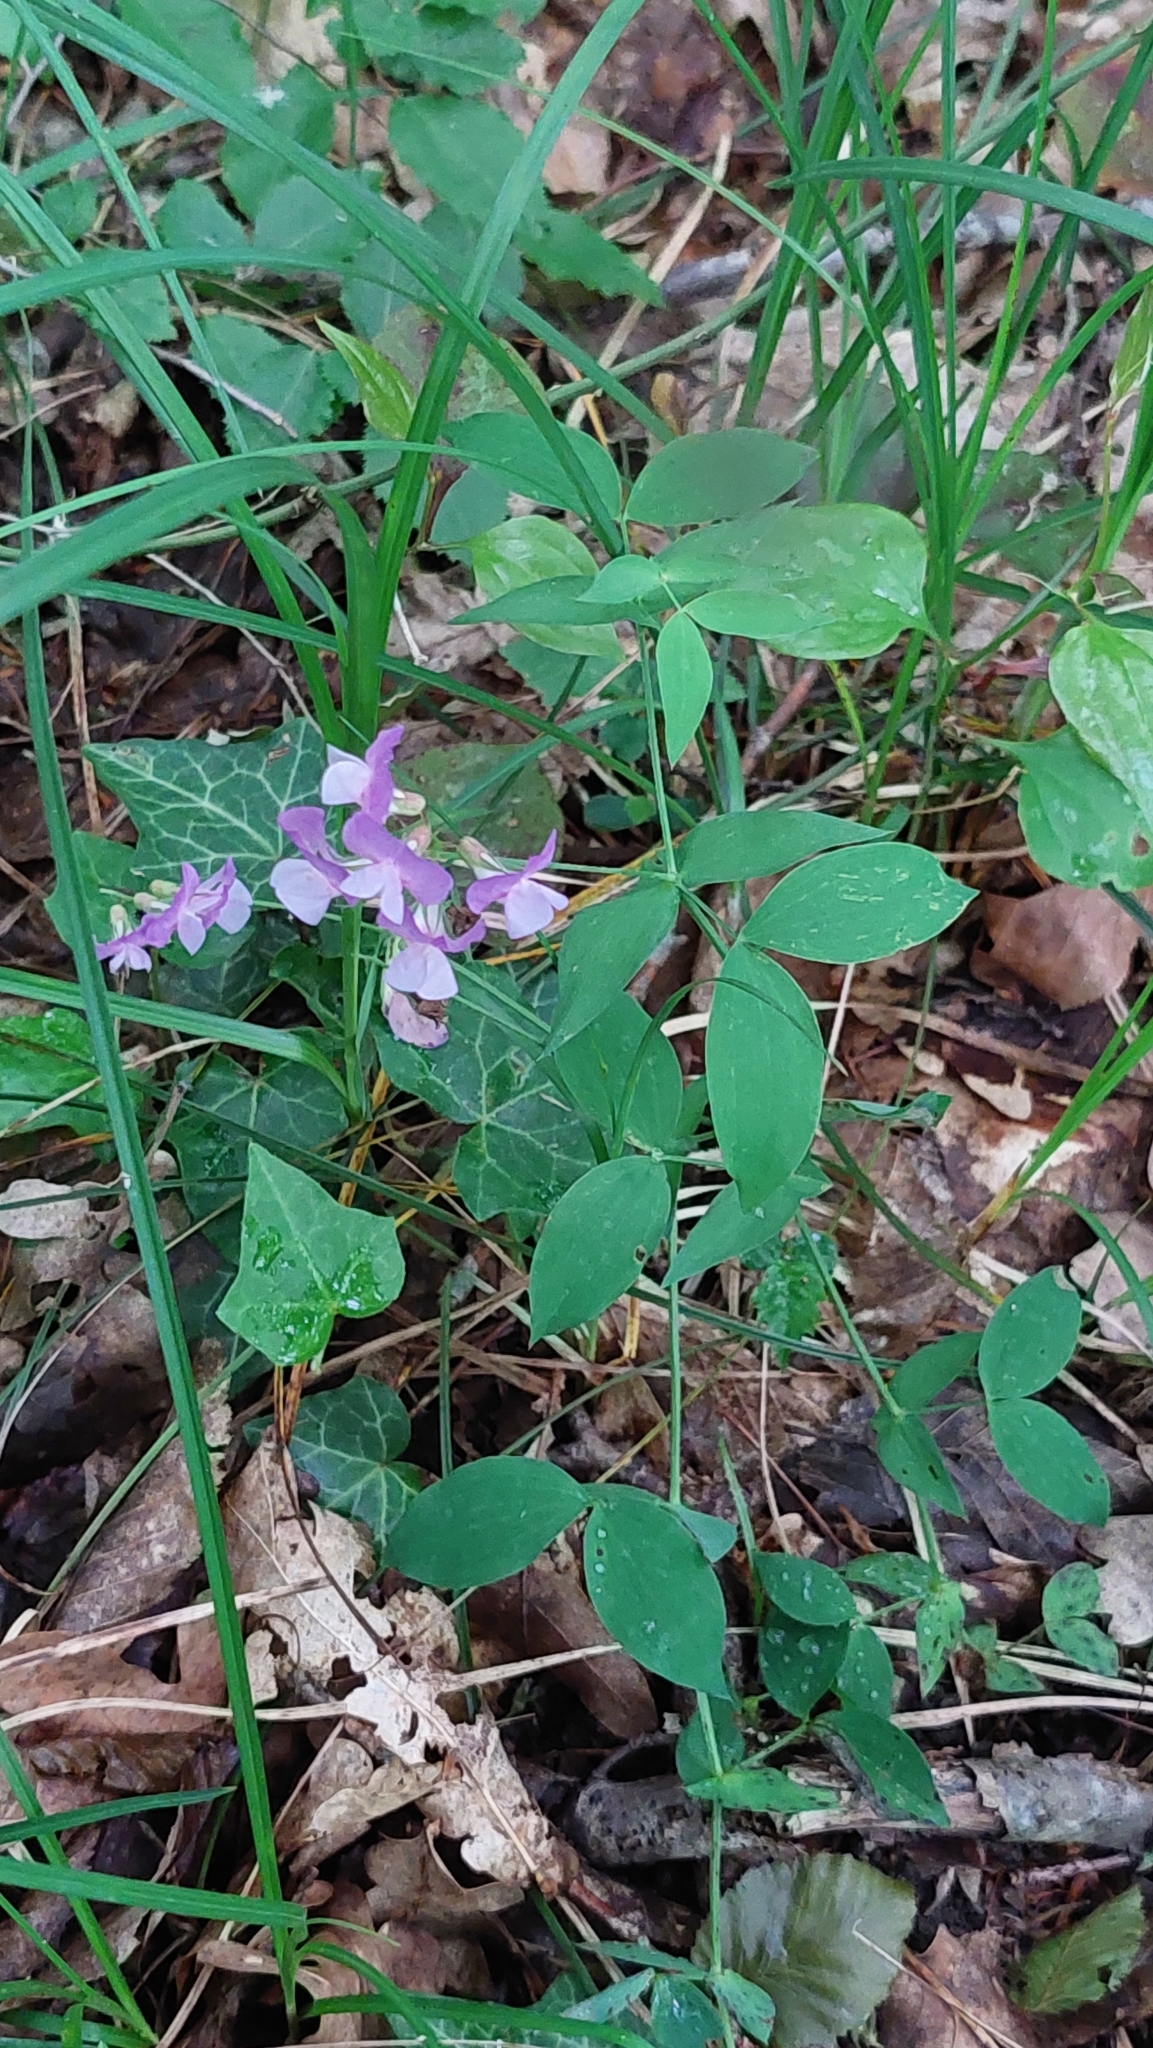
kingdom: Plantae
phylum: Tracheophyta
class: Magnoliopsida
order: Fabales
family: Fabaceae
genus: Lathyrus
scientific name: Lathyrus laxiflorus
